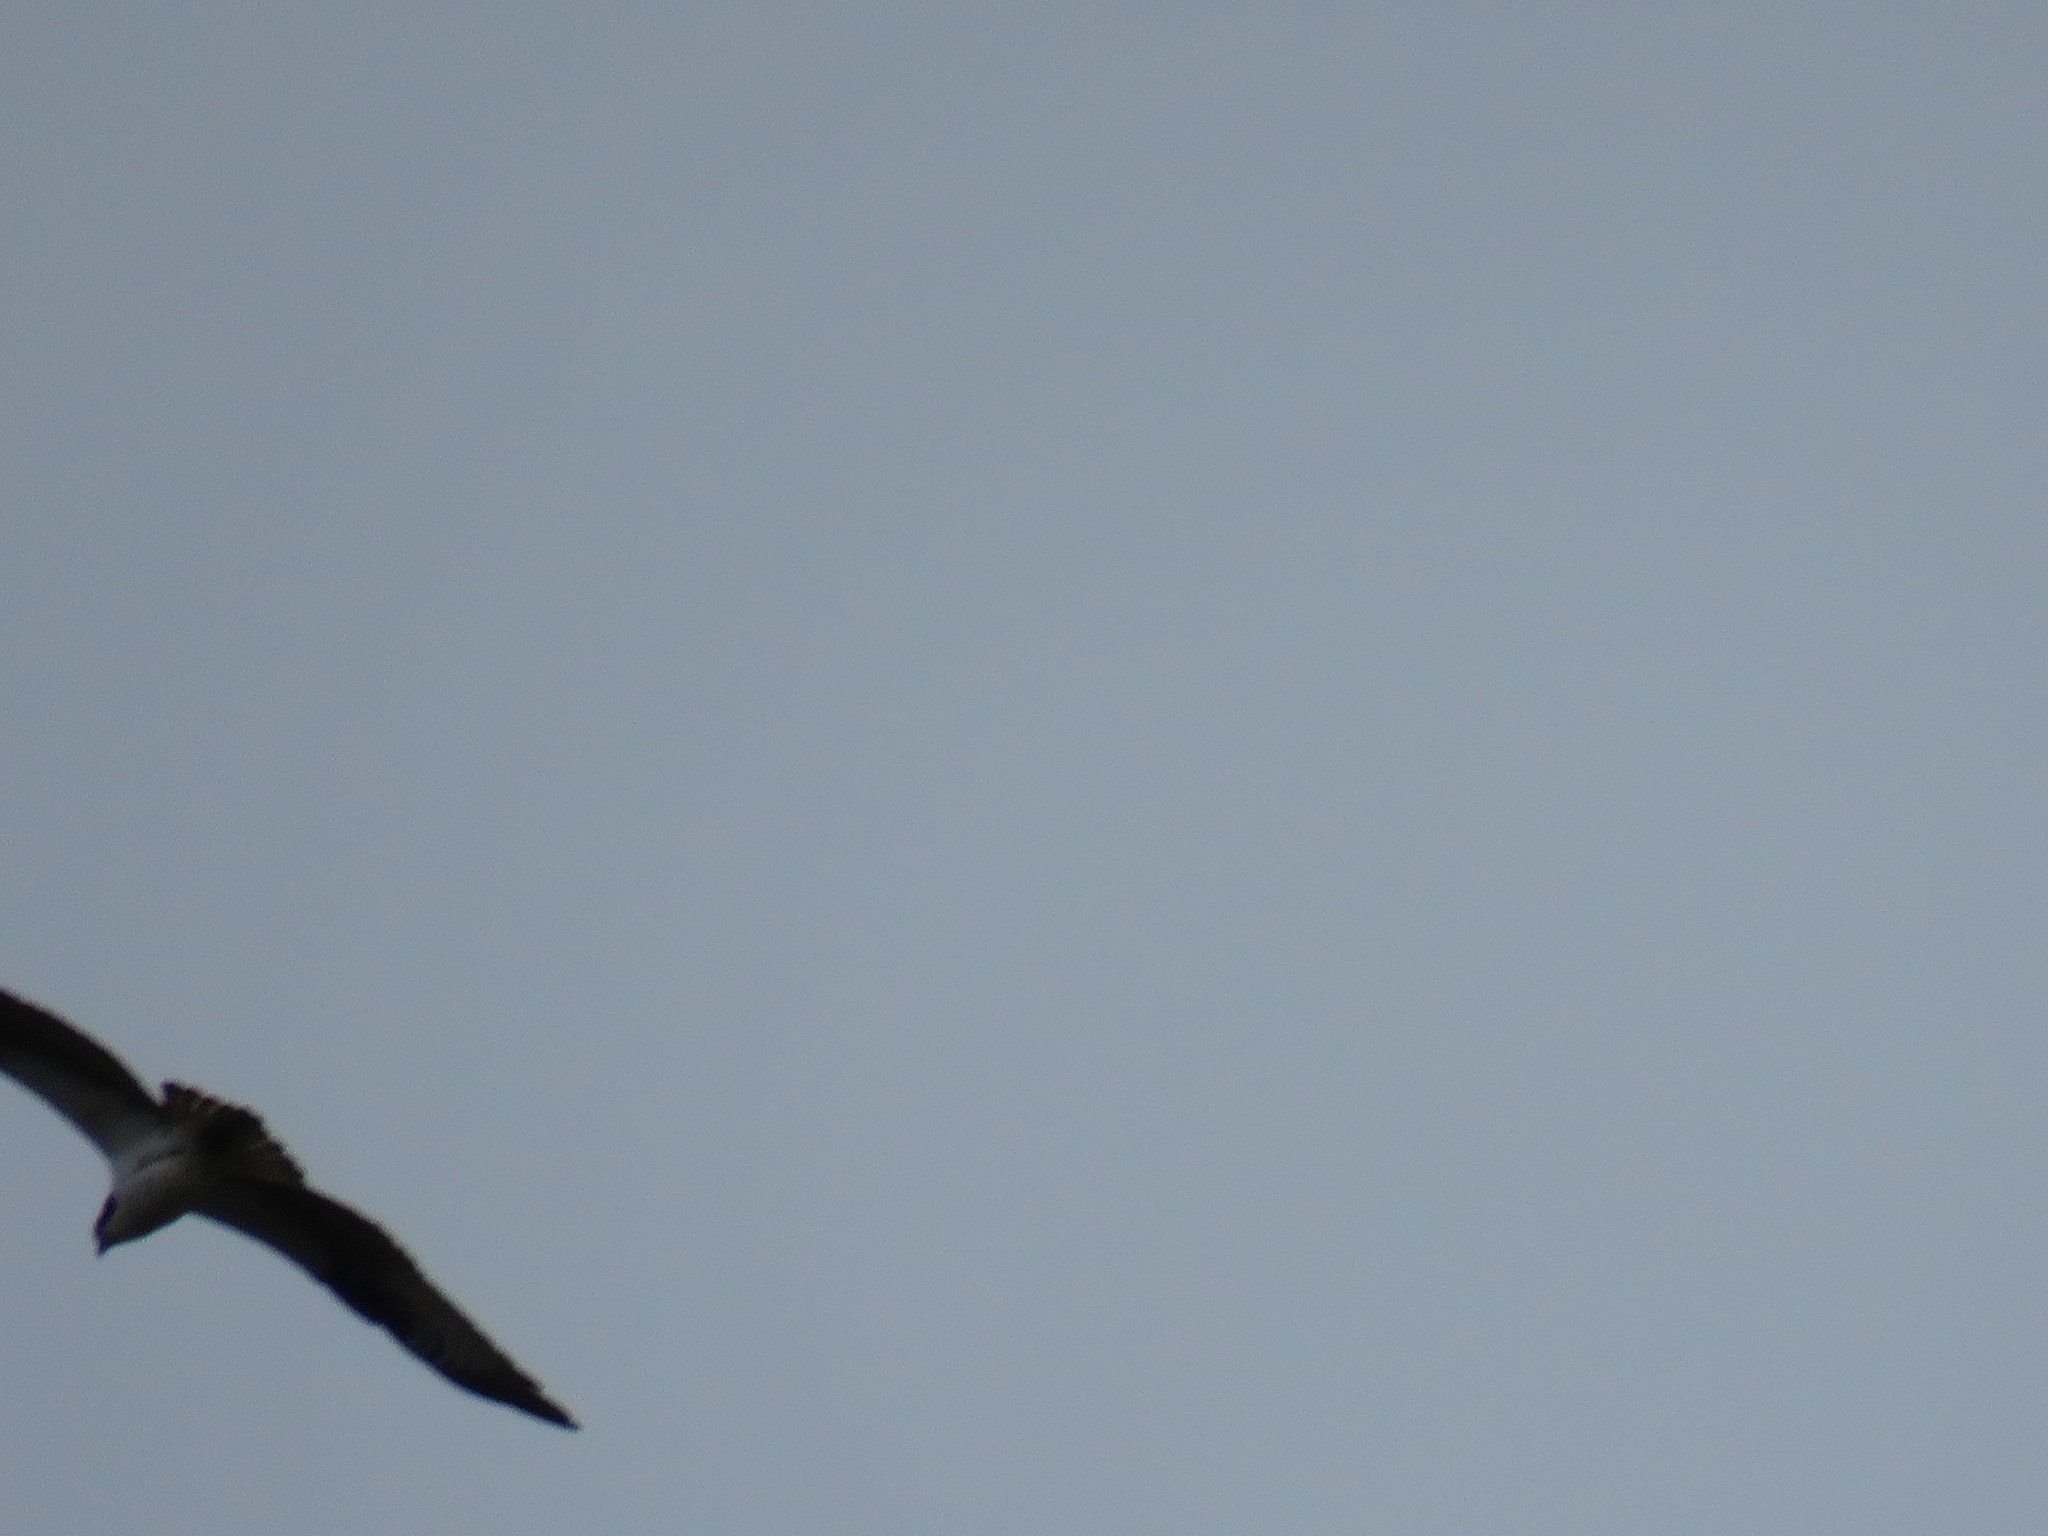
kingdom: Animalia
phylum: Chordata
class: Aves
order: Accipitriformes
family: Pandionidae
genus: Pandion
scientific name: Pandion haliaetus
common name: Osprey
